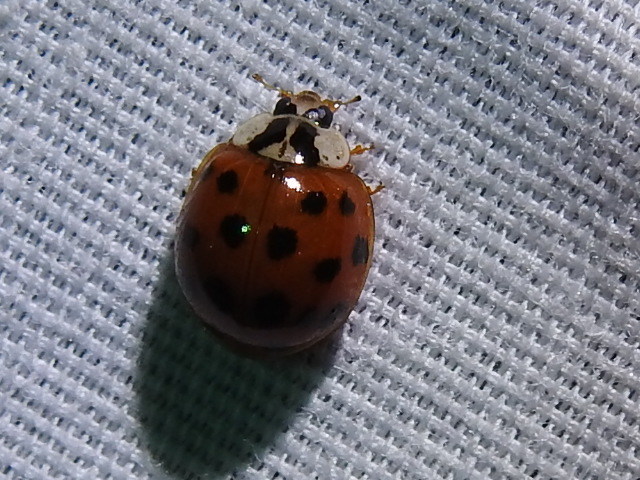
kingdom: Animalia
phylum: Arthropoda
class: Insecta
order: Coleoptera
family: Coccinellidae
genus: Harmonia
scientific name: Harmonia axyridis
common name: Harlequin ladybird
